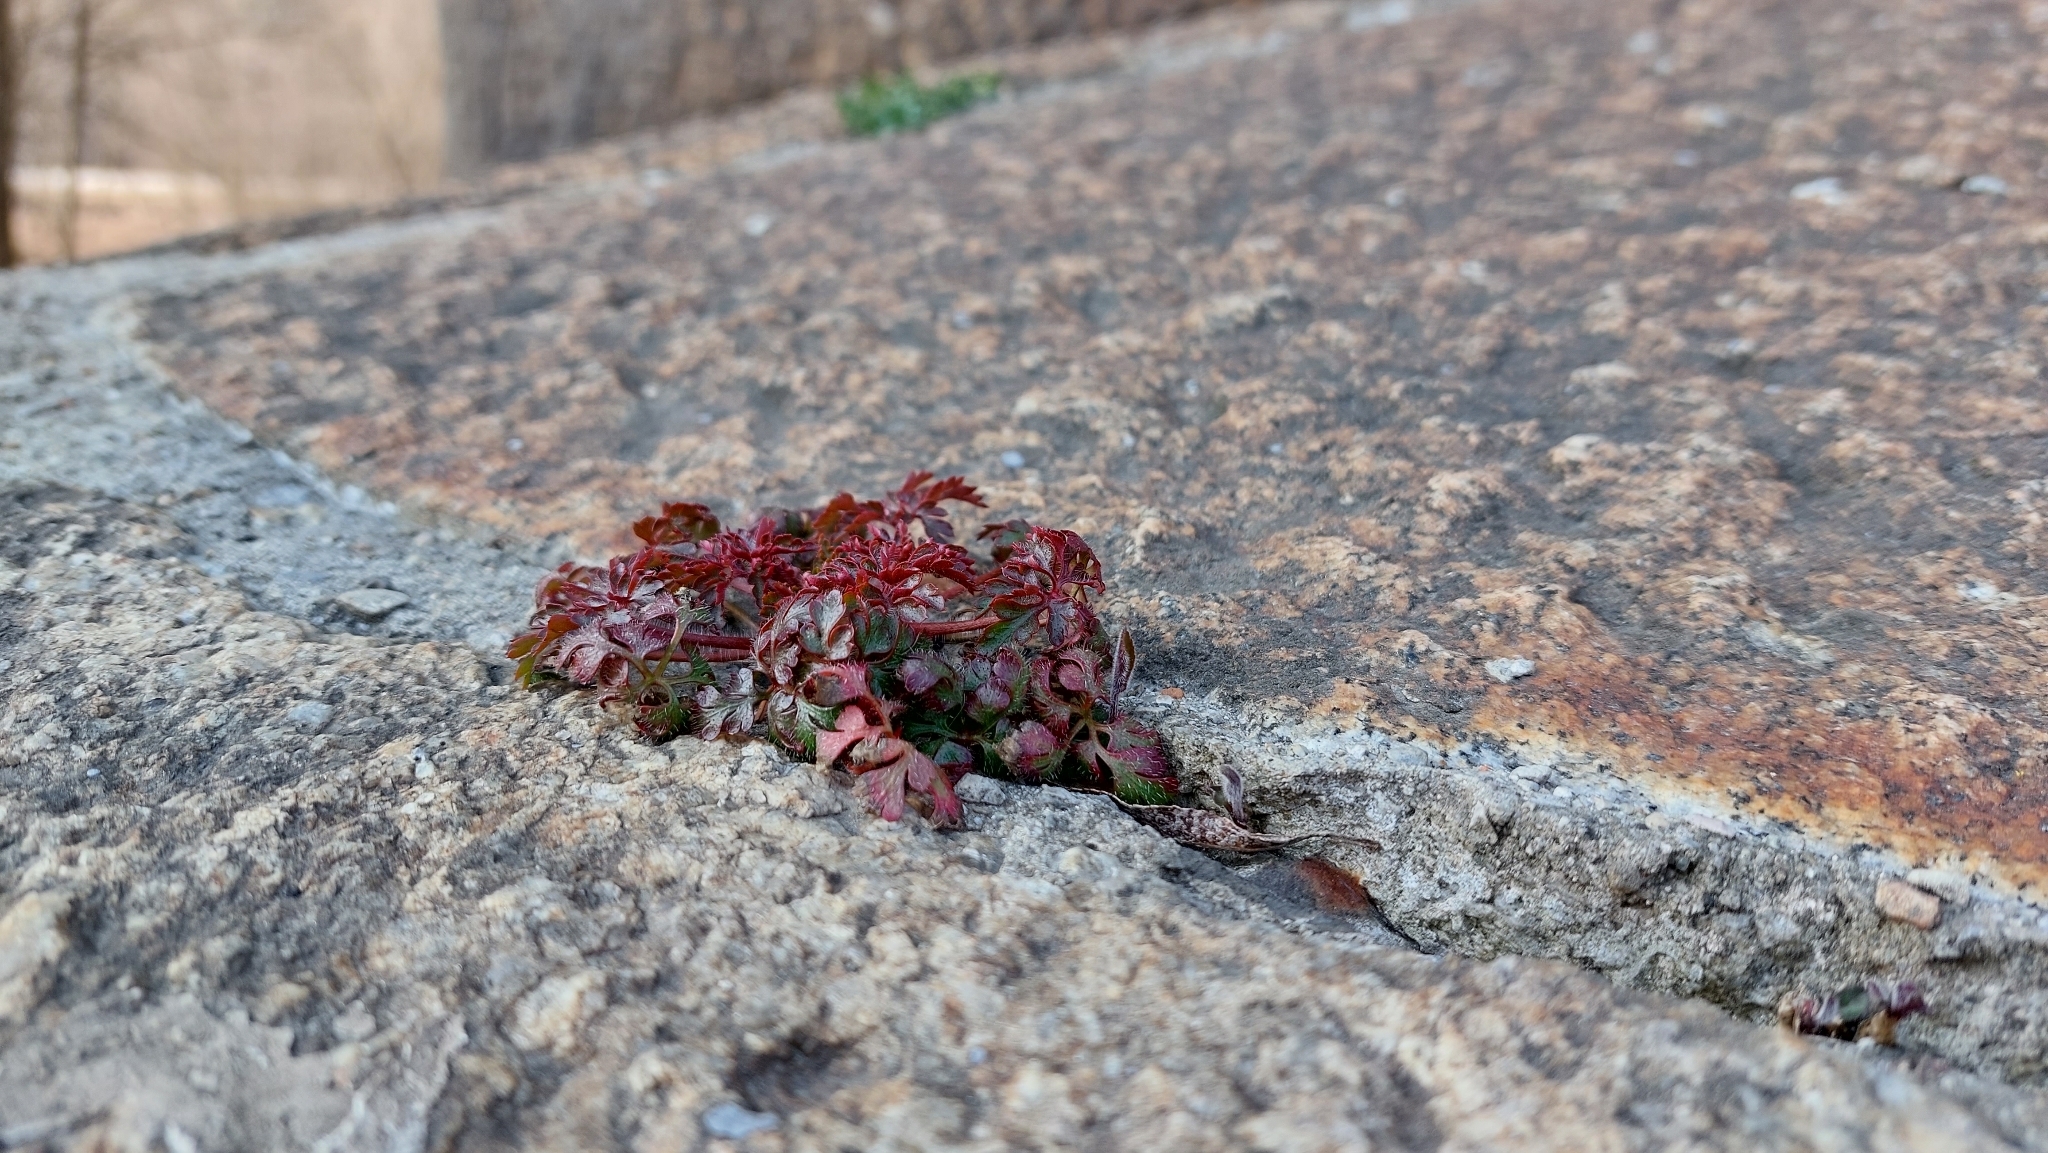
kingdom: Plantae
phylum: Tracheophyta
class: Magnoliopsida
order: Geraniales
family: Geraniaceae
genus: Geranium
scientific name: Geranium robertianum
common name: Herb-robert
